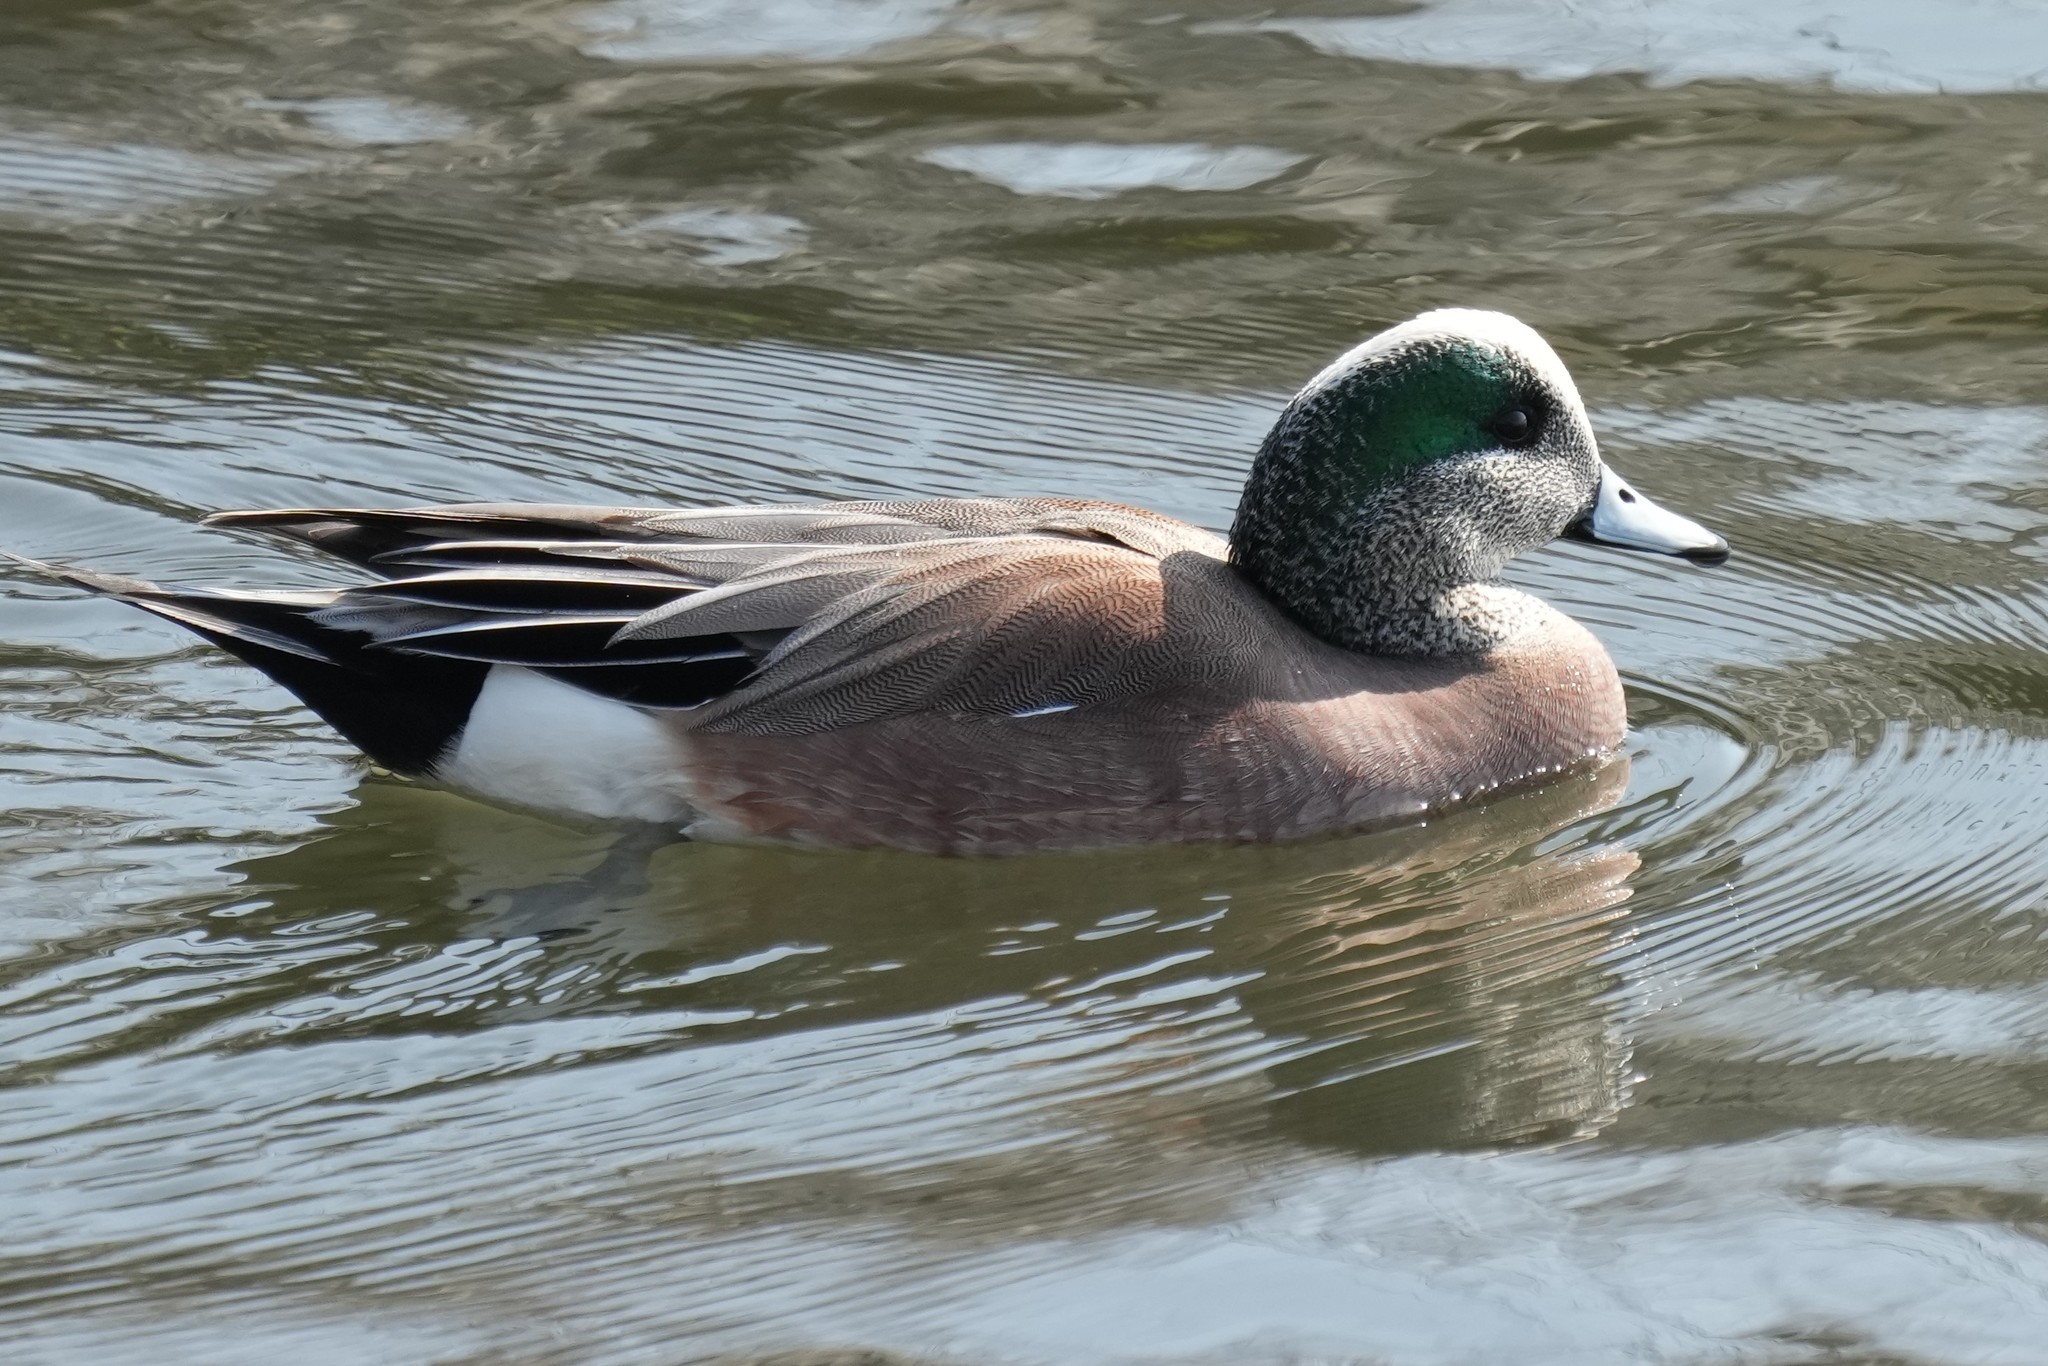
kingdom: Animalia
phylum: Chordata
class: Aves
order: Anseriformes
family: Anatidae
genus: Mareca
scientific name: Mareca americana
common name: American wigeon
